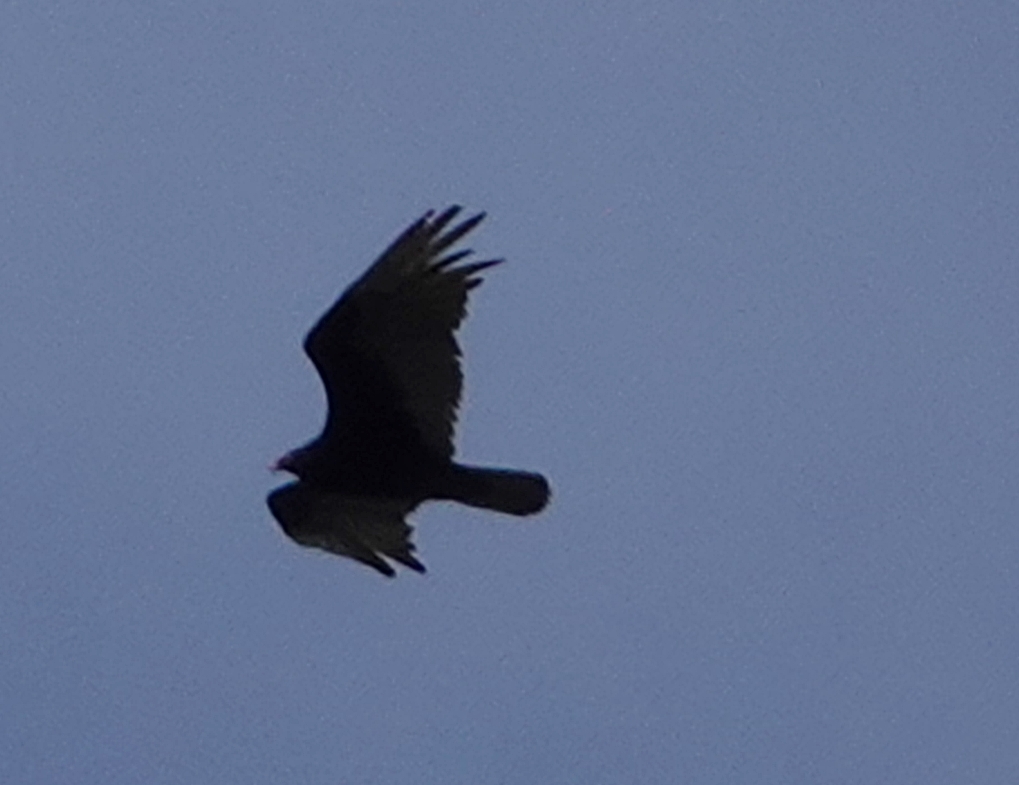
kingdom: Animalia
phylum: Chordata
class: Aves
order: Accipitriformes
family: Cathartidae
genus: Cathartes
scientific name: Cathartes aura
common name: Turkey vulture
